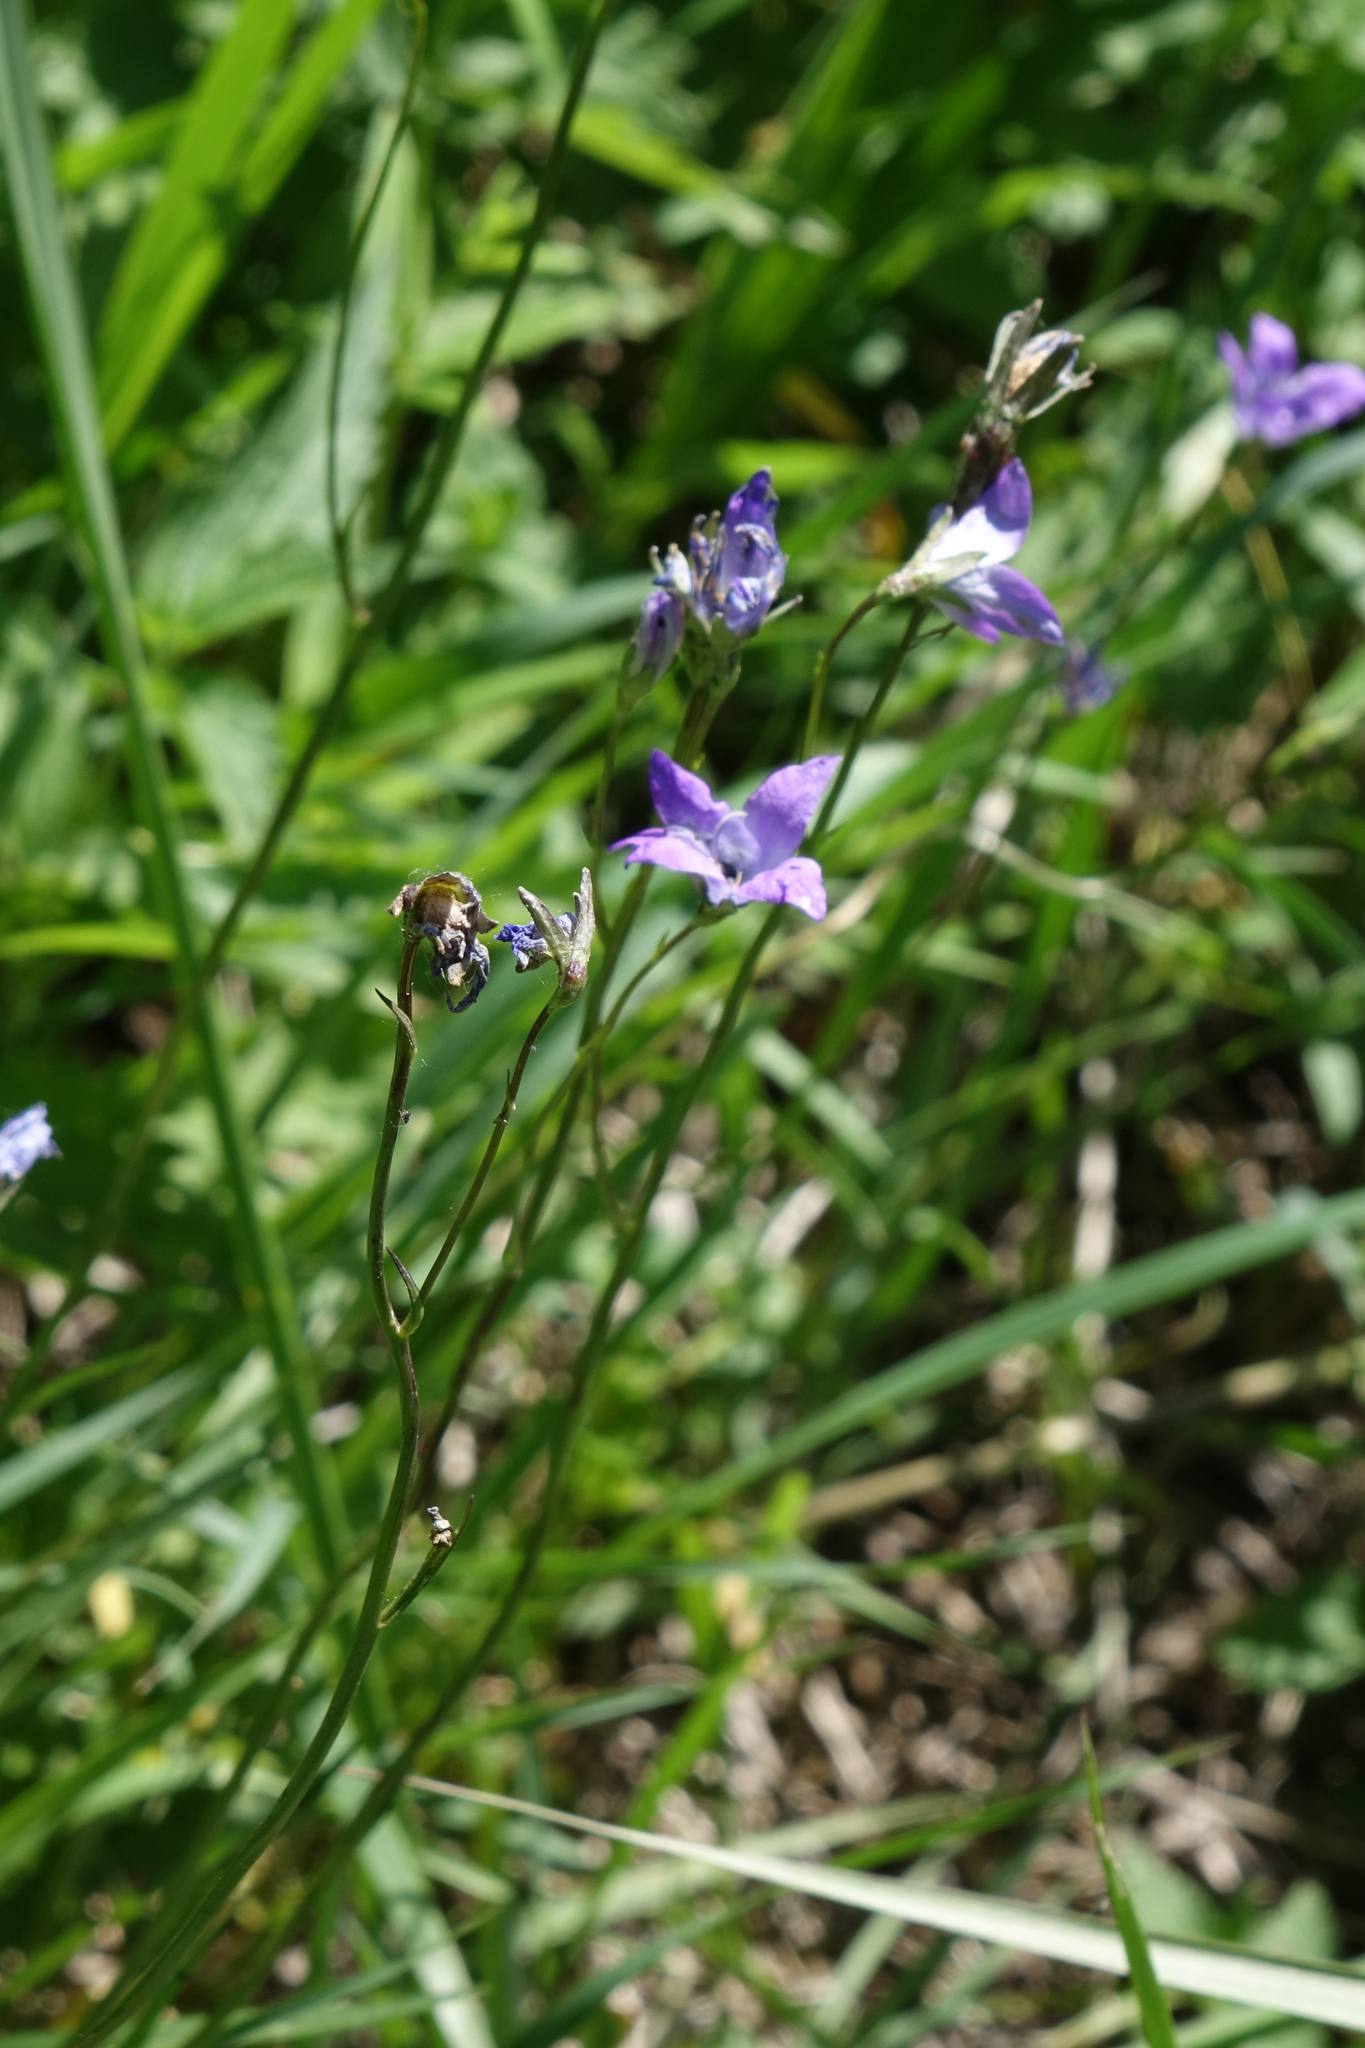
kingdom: Plantae
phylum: Tracheophyta
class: Magnoliopsida
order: Asterales
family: Campanulaceae
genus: Campanula
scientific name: Campanula stevenii
